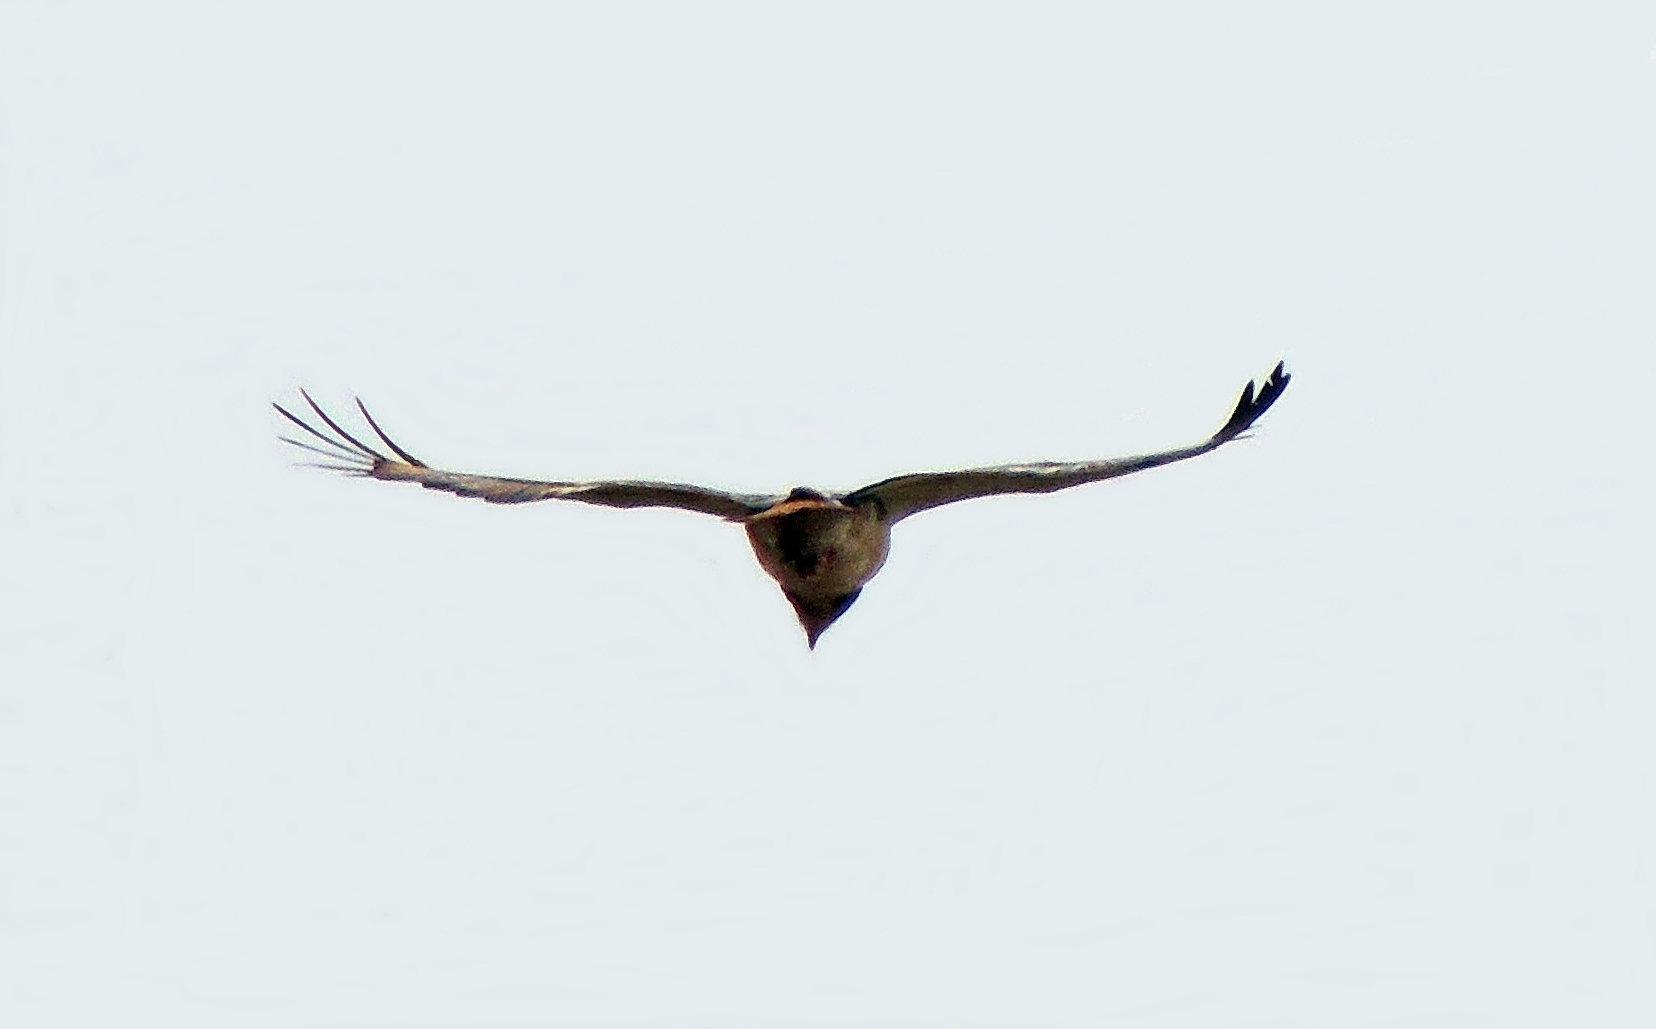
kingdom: Animalia
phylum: Chordata
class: Aves
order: Accipitriformes
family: Accipitridae
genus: Buteo
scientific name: Buteo augur
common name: Augur buzzard
